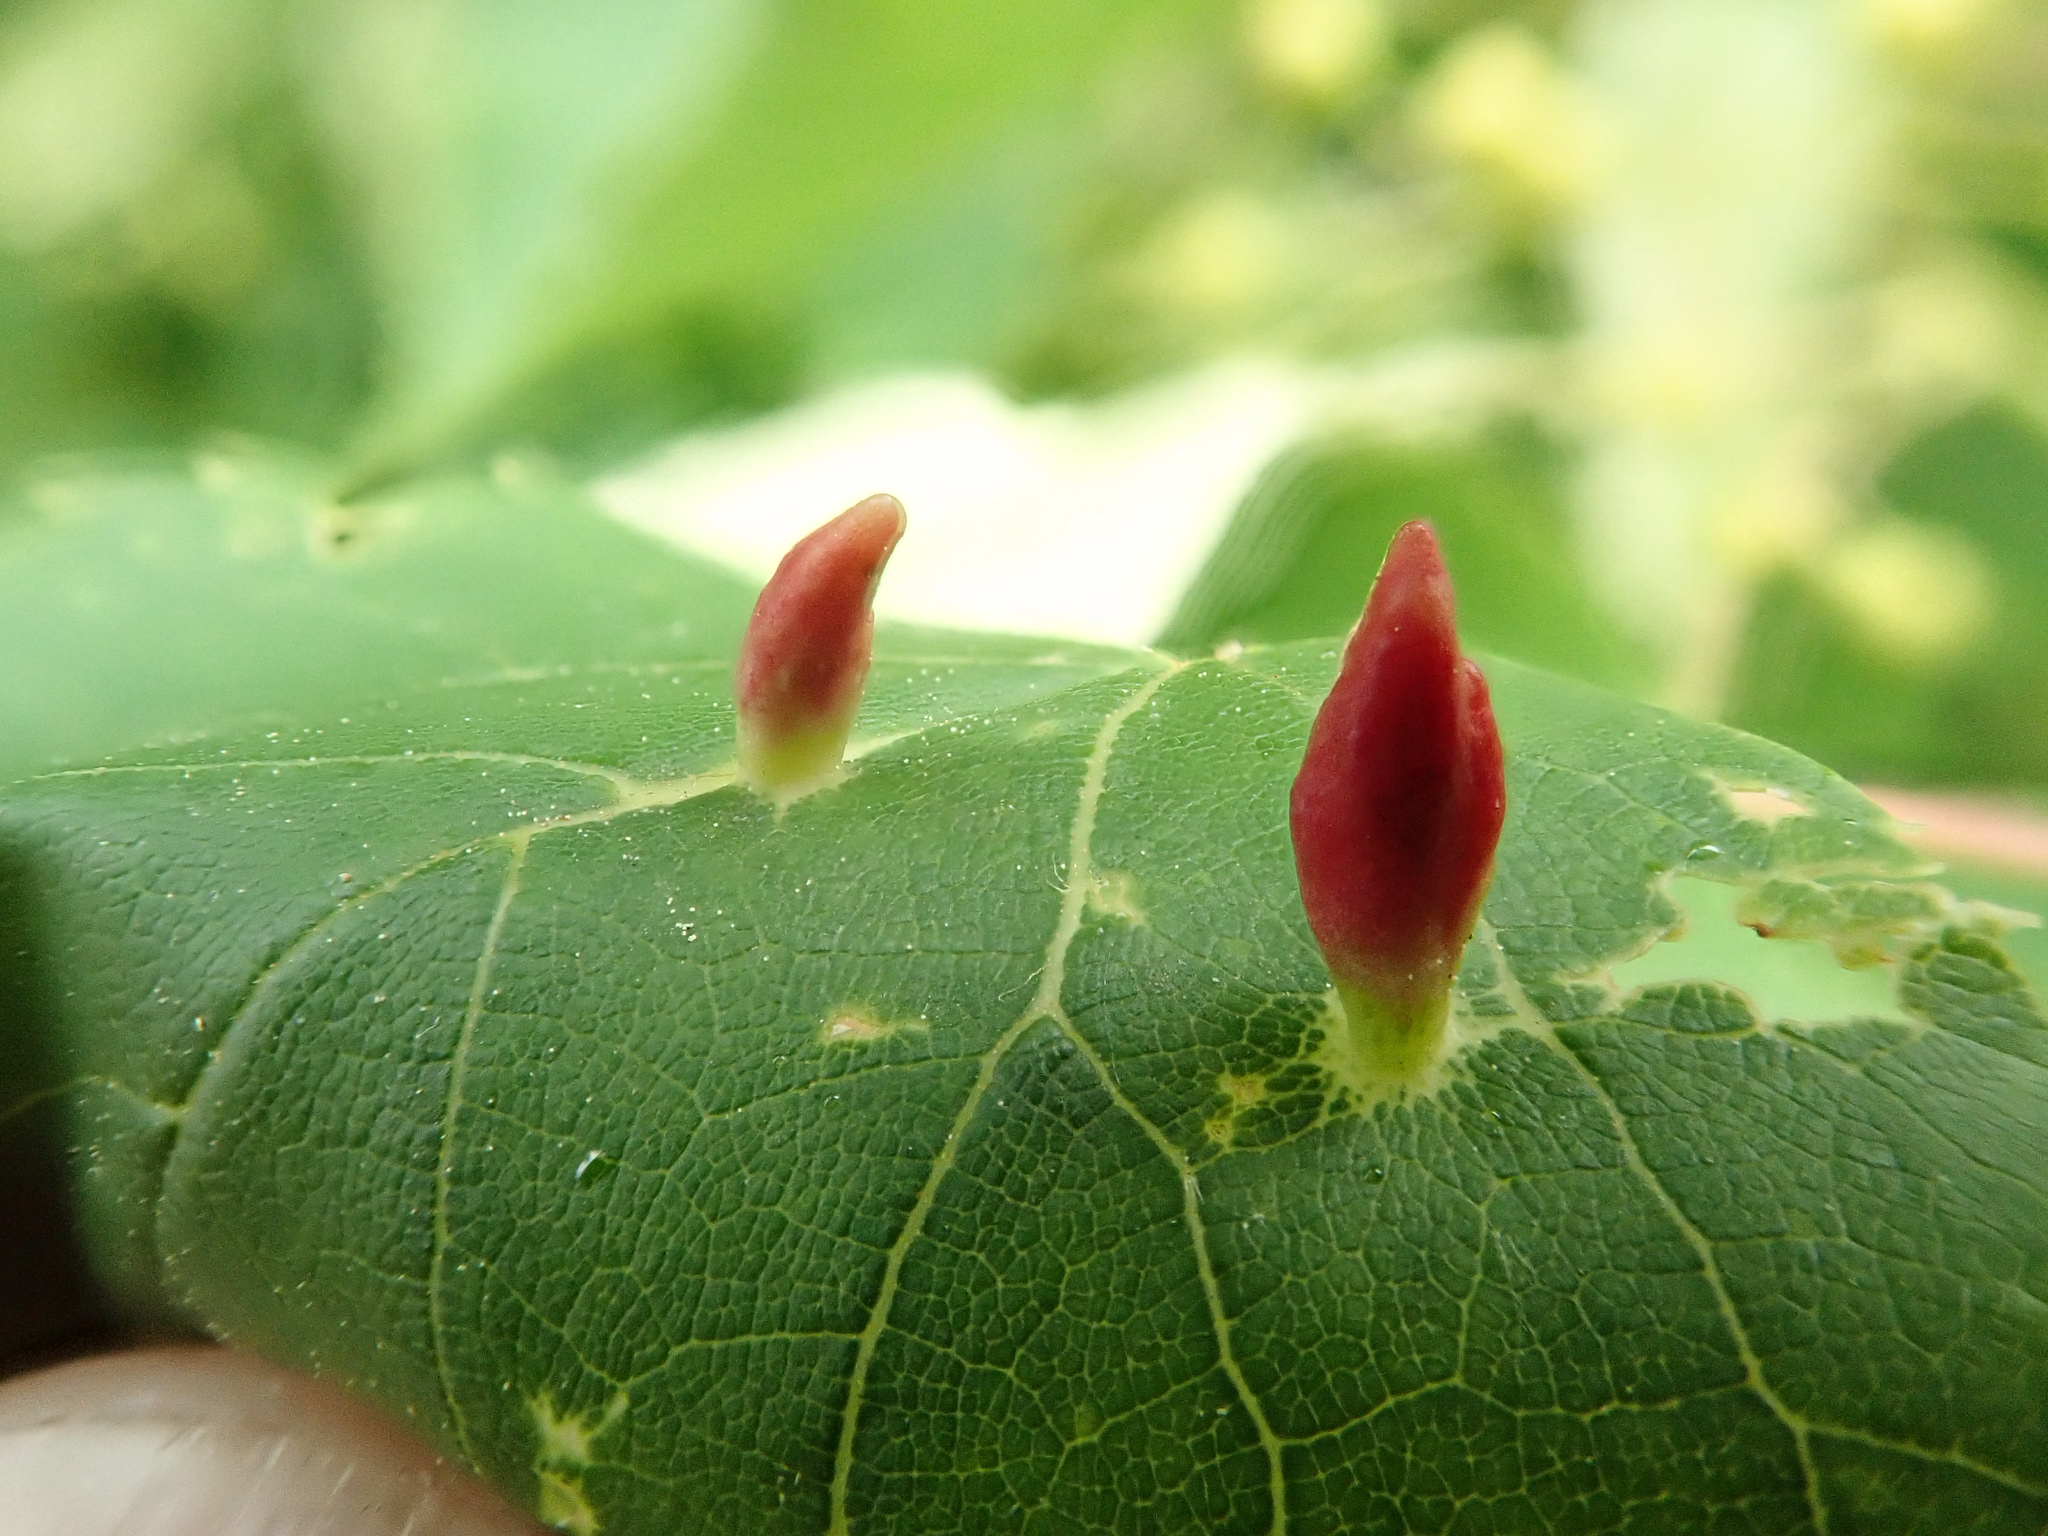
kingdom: Animalia
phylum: Arthropoda
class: Arachnida
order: Trombidiformes
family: Eriophyidae
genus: Eriophyes
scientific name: Eriophyes tiliae
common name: Red nail gall mite
